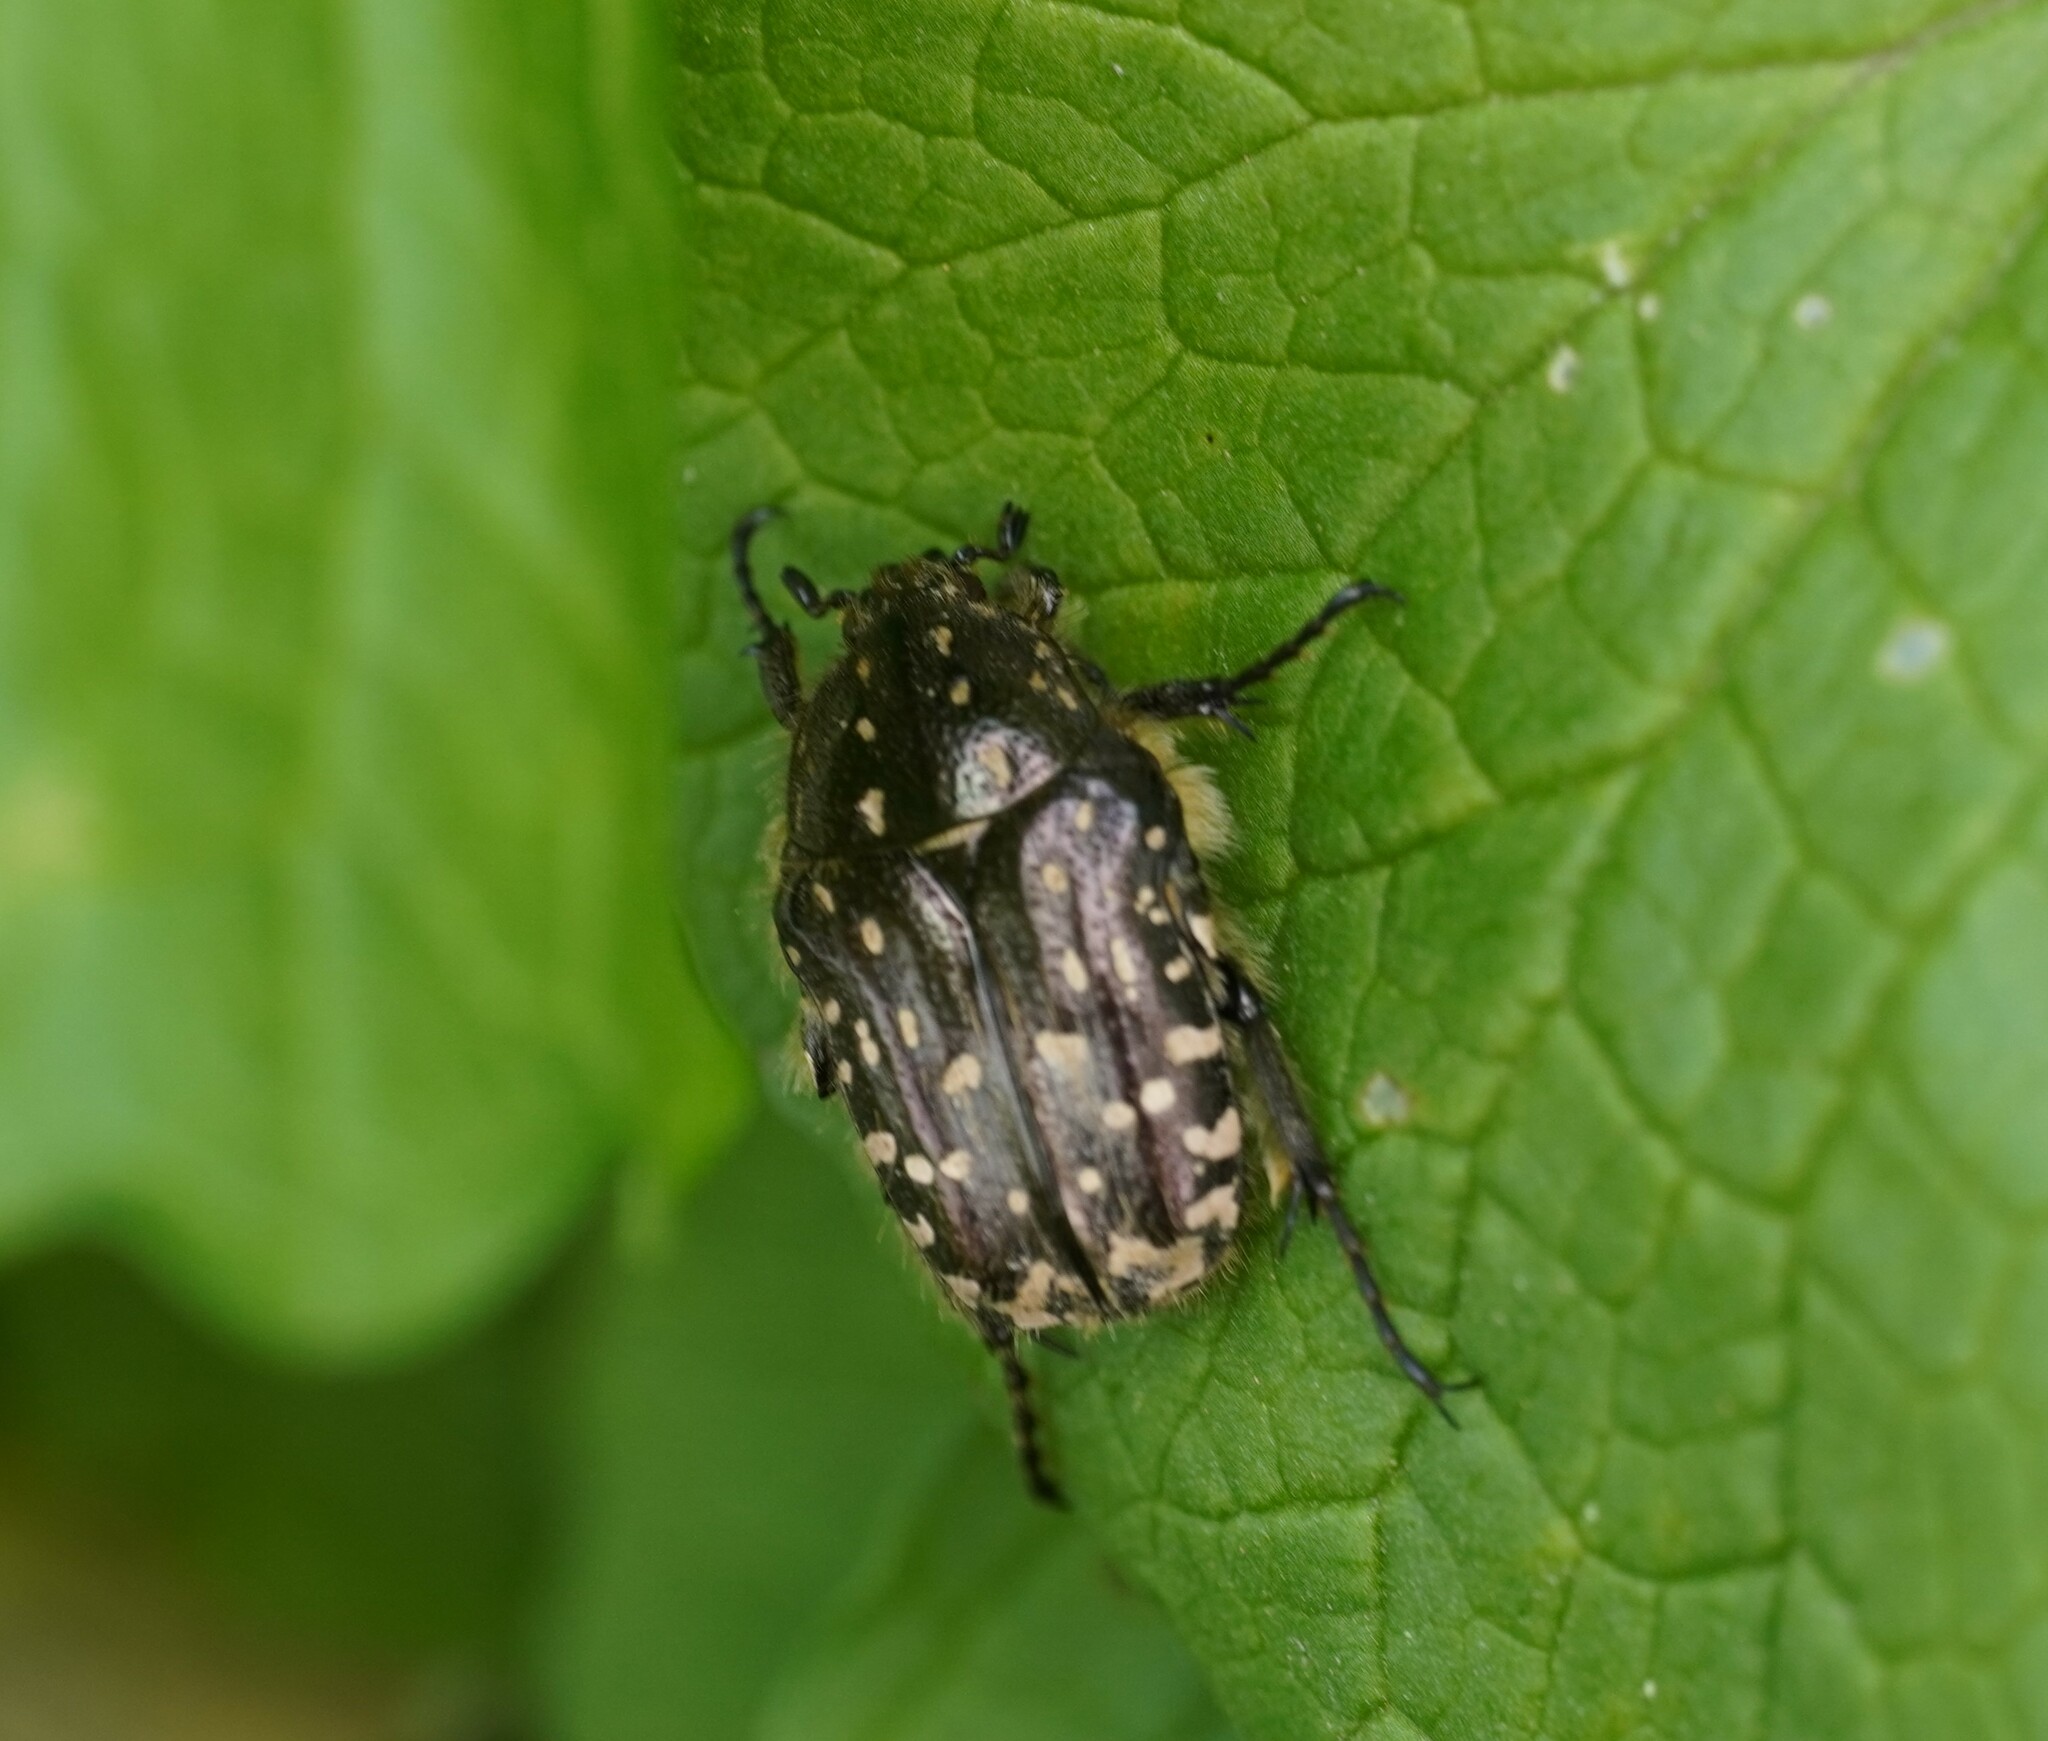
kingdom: Animalia
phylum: Arthropoda
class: Insecta
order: Coleoptera
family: Scarabaeidae
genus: Oxythyrea
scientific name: Oxythyrea funesta
